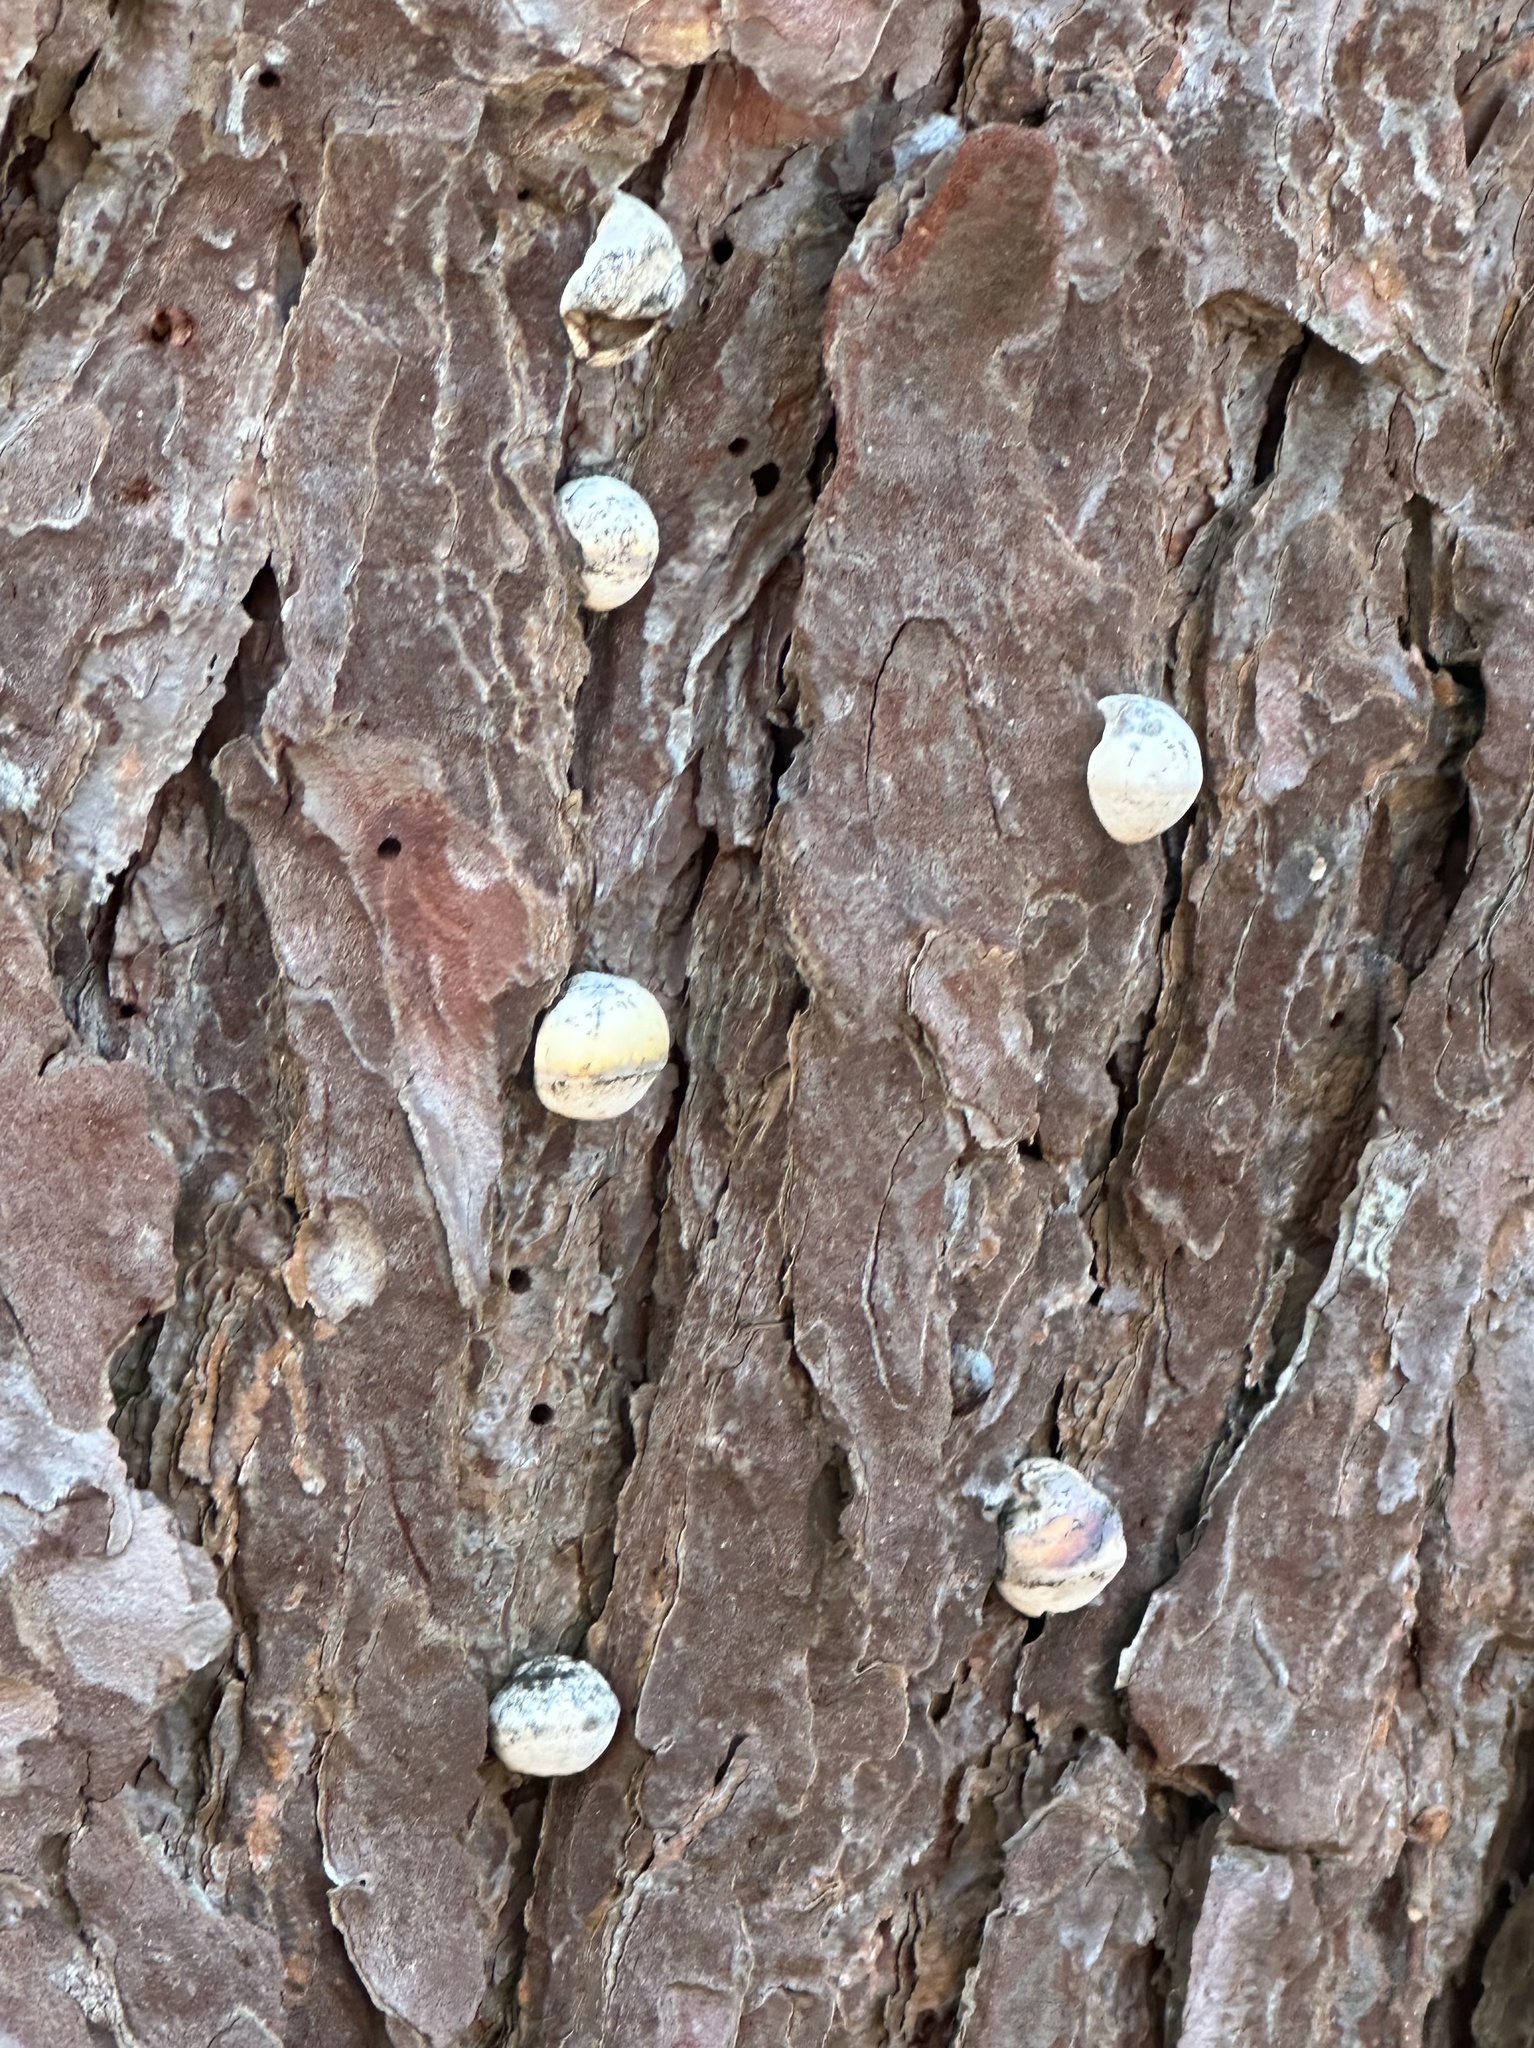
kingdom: Fungi
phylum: Basidiomycota
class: Agaricomycetes
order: Polyporales
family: Polyporaceae
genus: Cryptoporus
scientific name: Cryptoporus volvatus
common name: Veiled polypore
